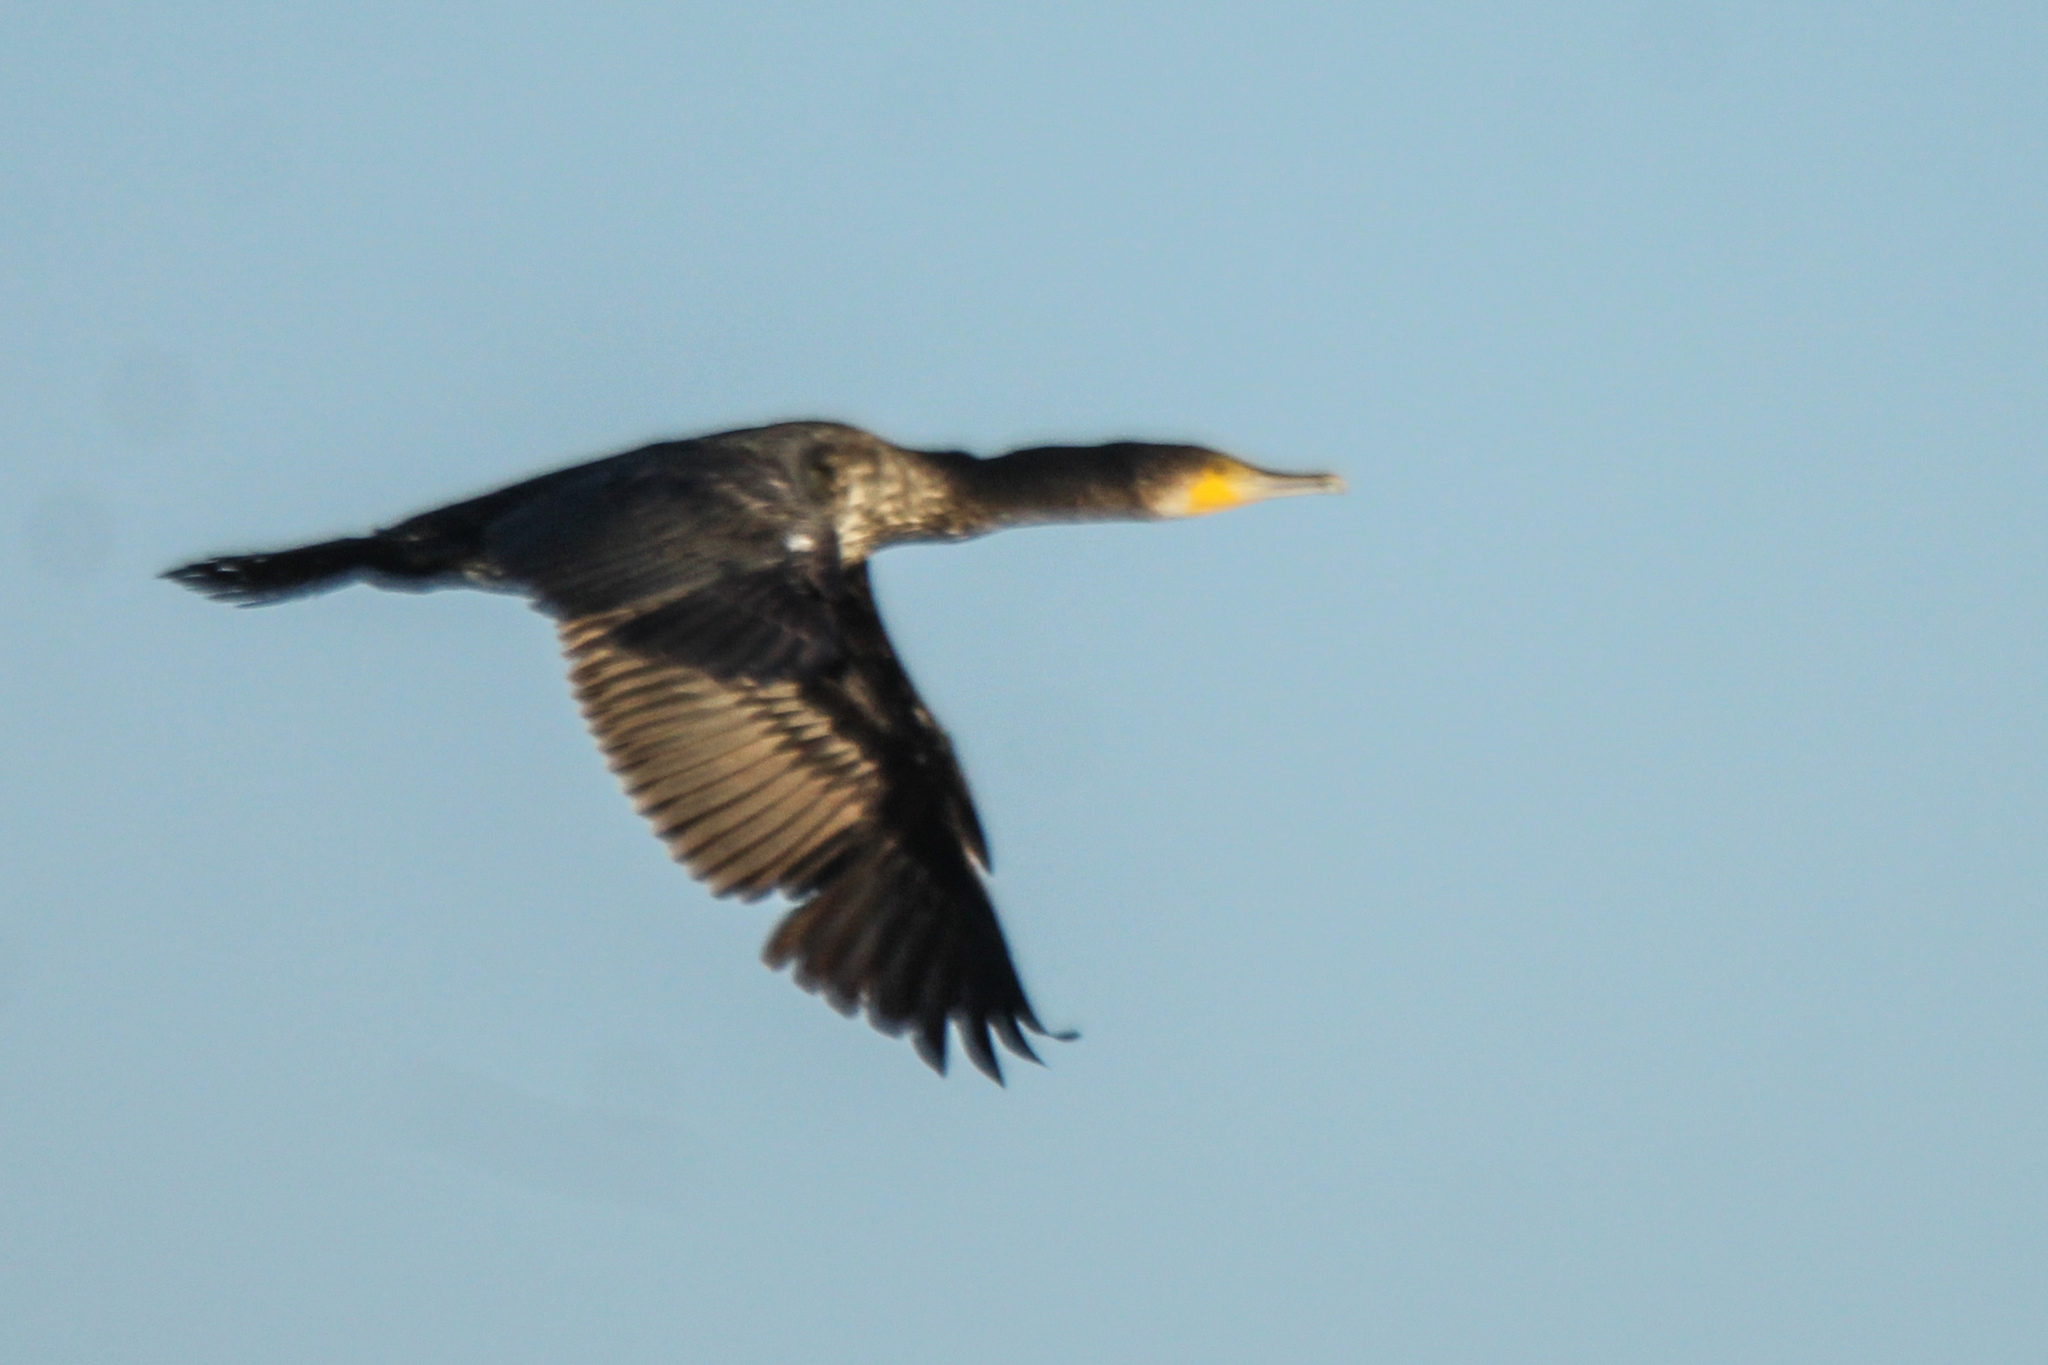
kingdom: Animalia
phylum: Chordata
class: Aves
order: Suliformes
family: Phalacrocoracidae
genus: Phalacrocorax
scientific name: Phalacrocorax carbo
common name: Great cormorant
